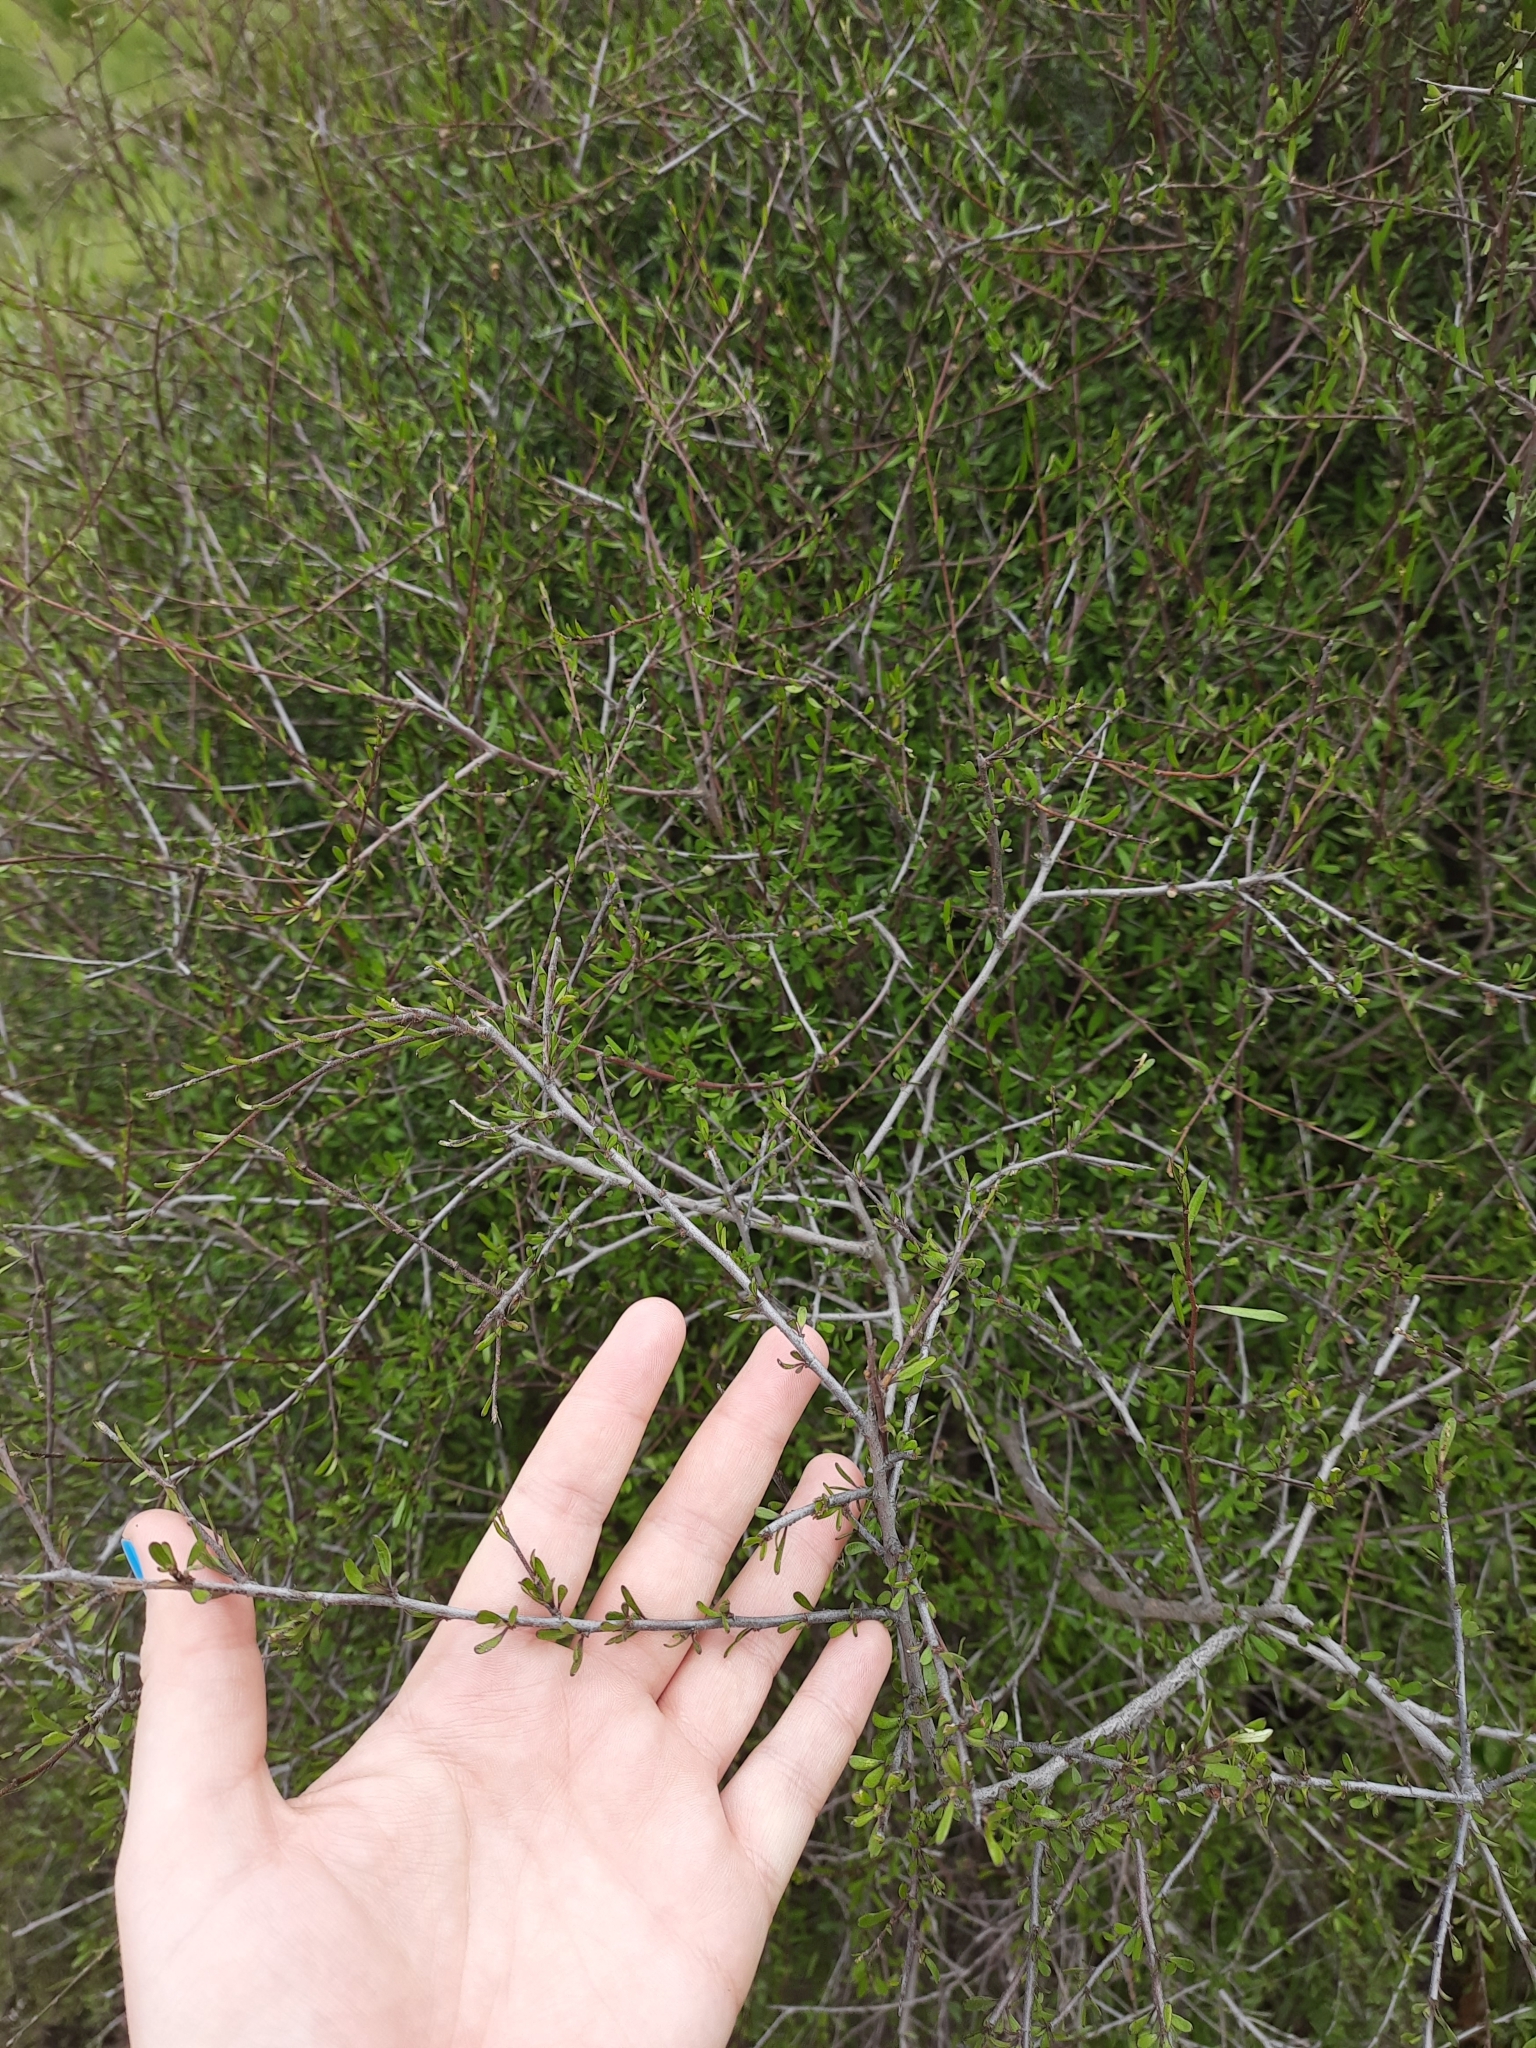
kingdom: Plantae
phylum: Tracheophyta
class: Magnoliopsida
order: Malvales
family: Malvaceae
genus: Plagianthus
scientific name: Plagianthus divaricatus
